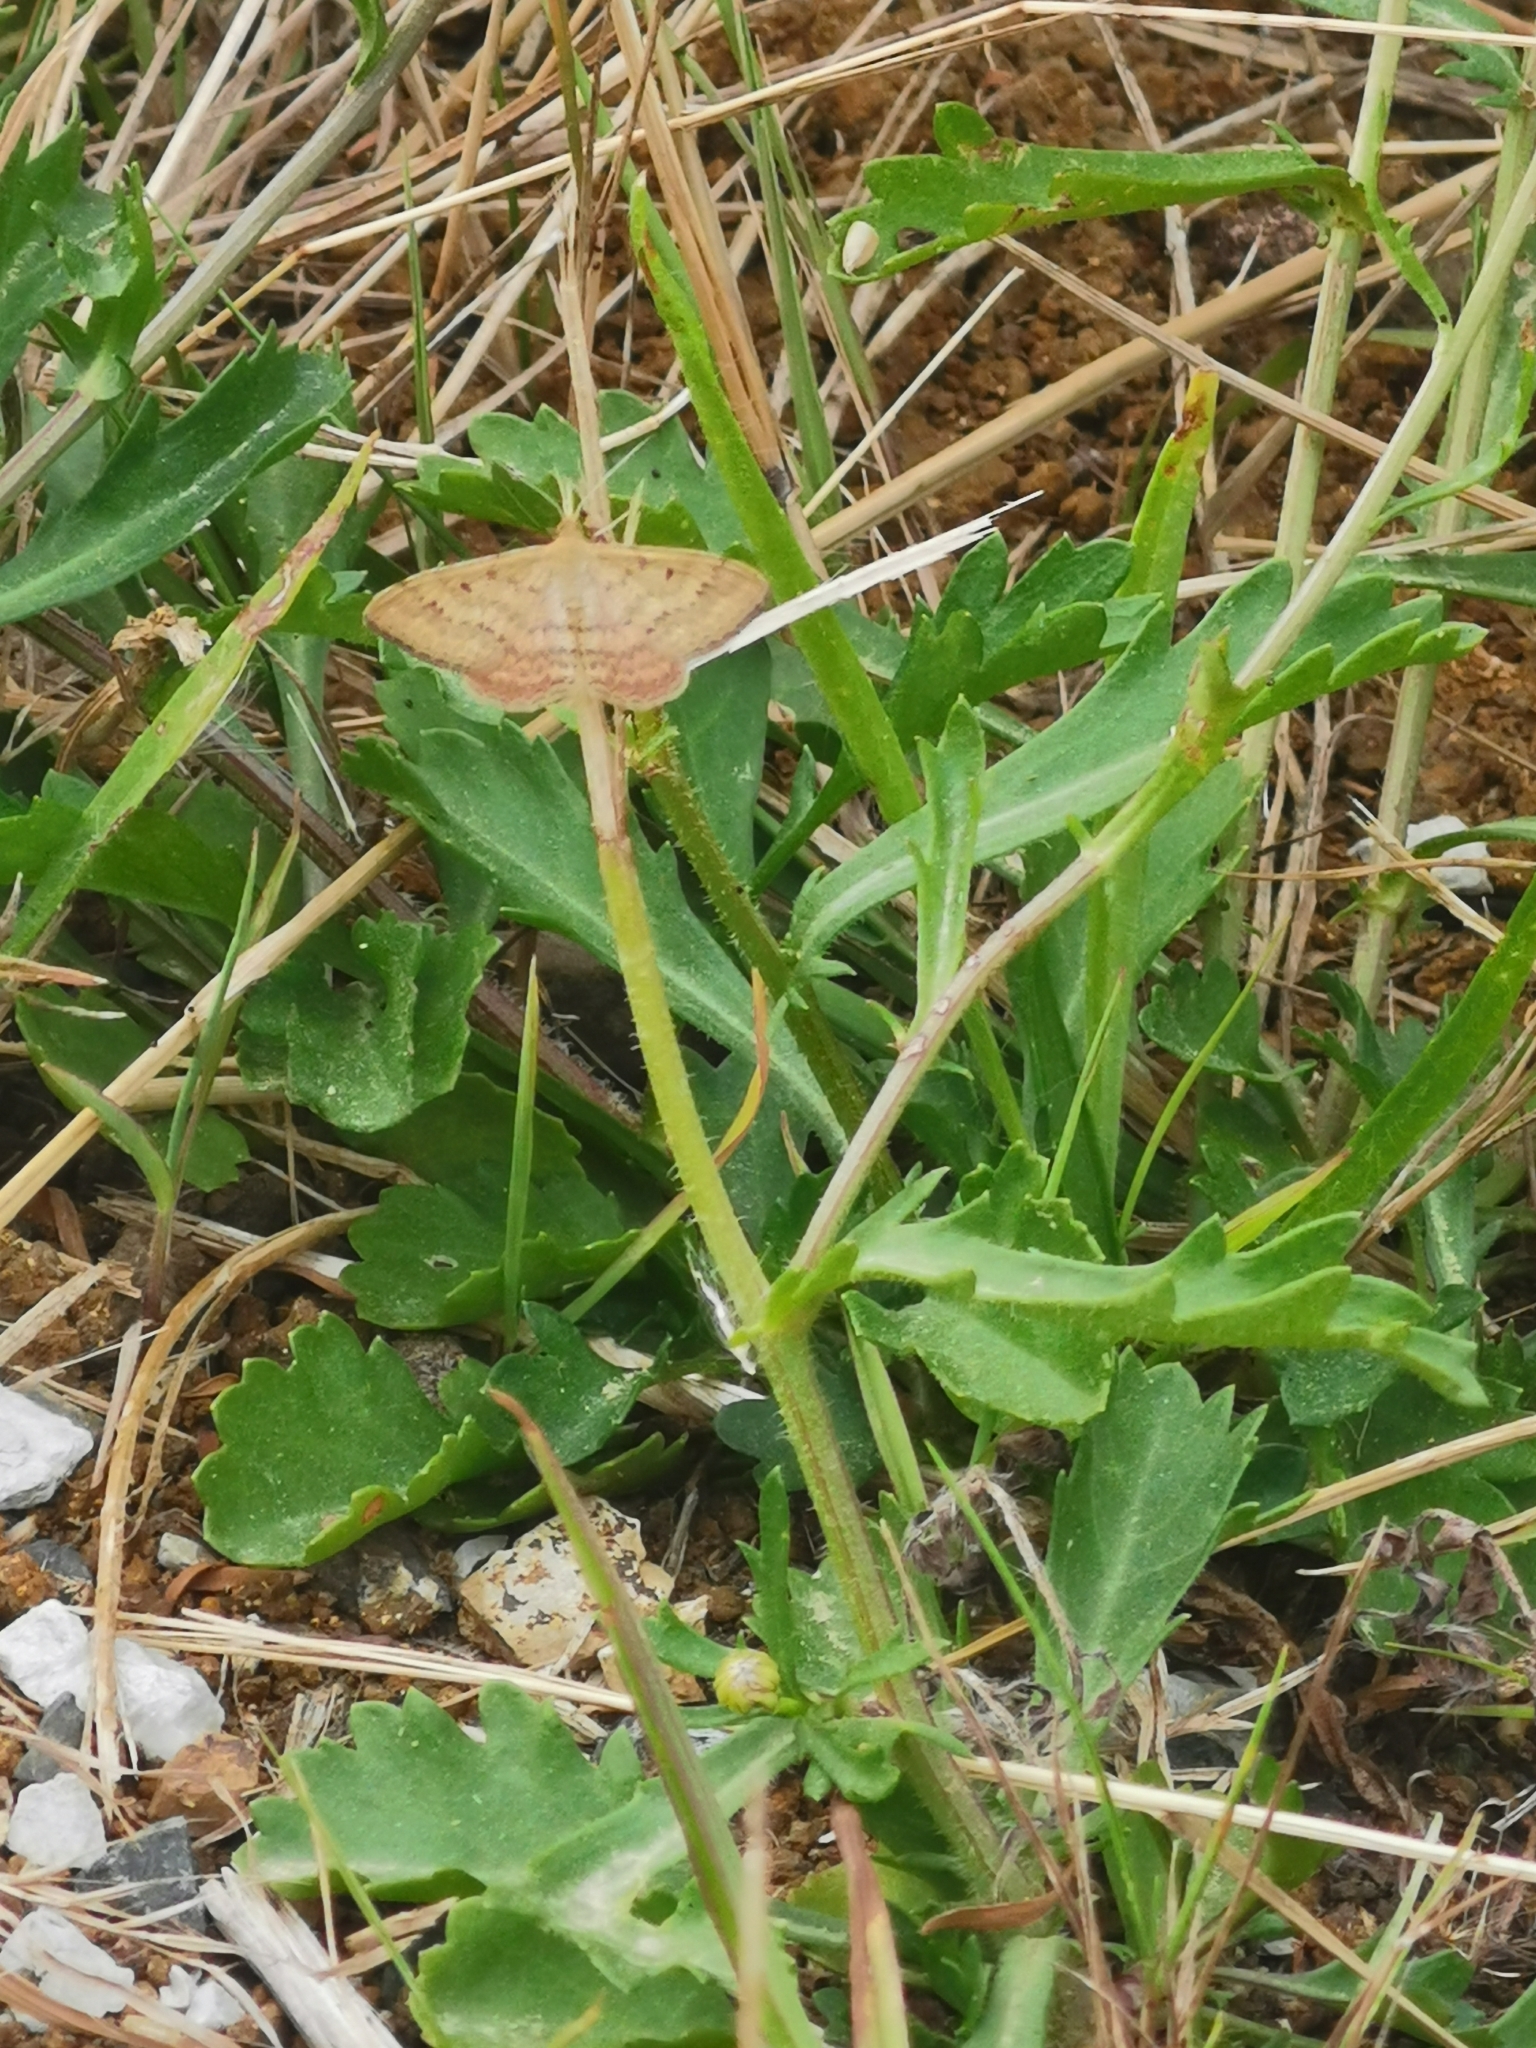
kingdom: Animalia
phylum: Arthropoda
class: Insecta
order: Lepidoptera
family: Geometridae
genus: Scopula
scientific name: Scopula rubraria
